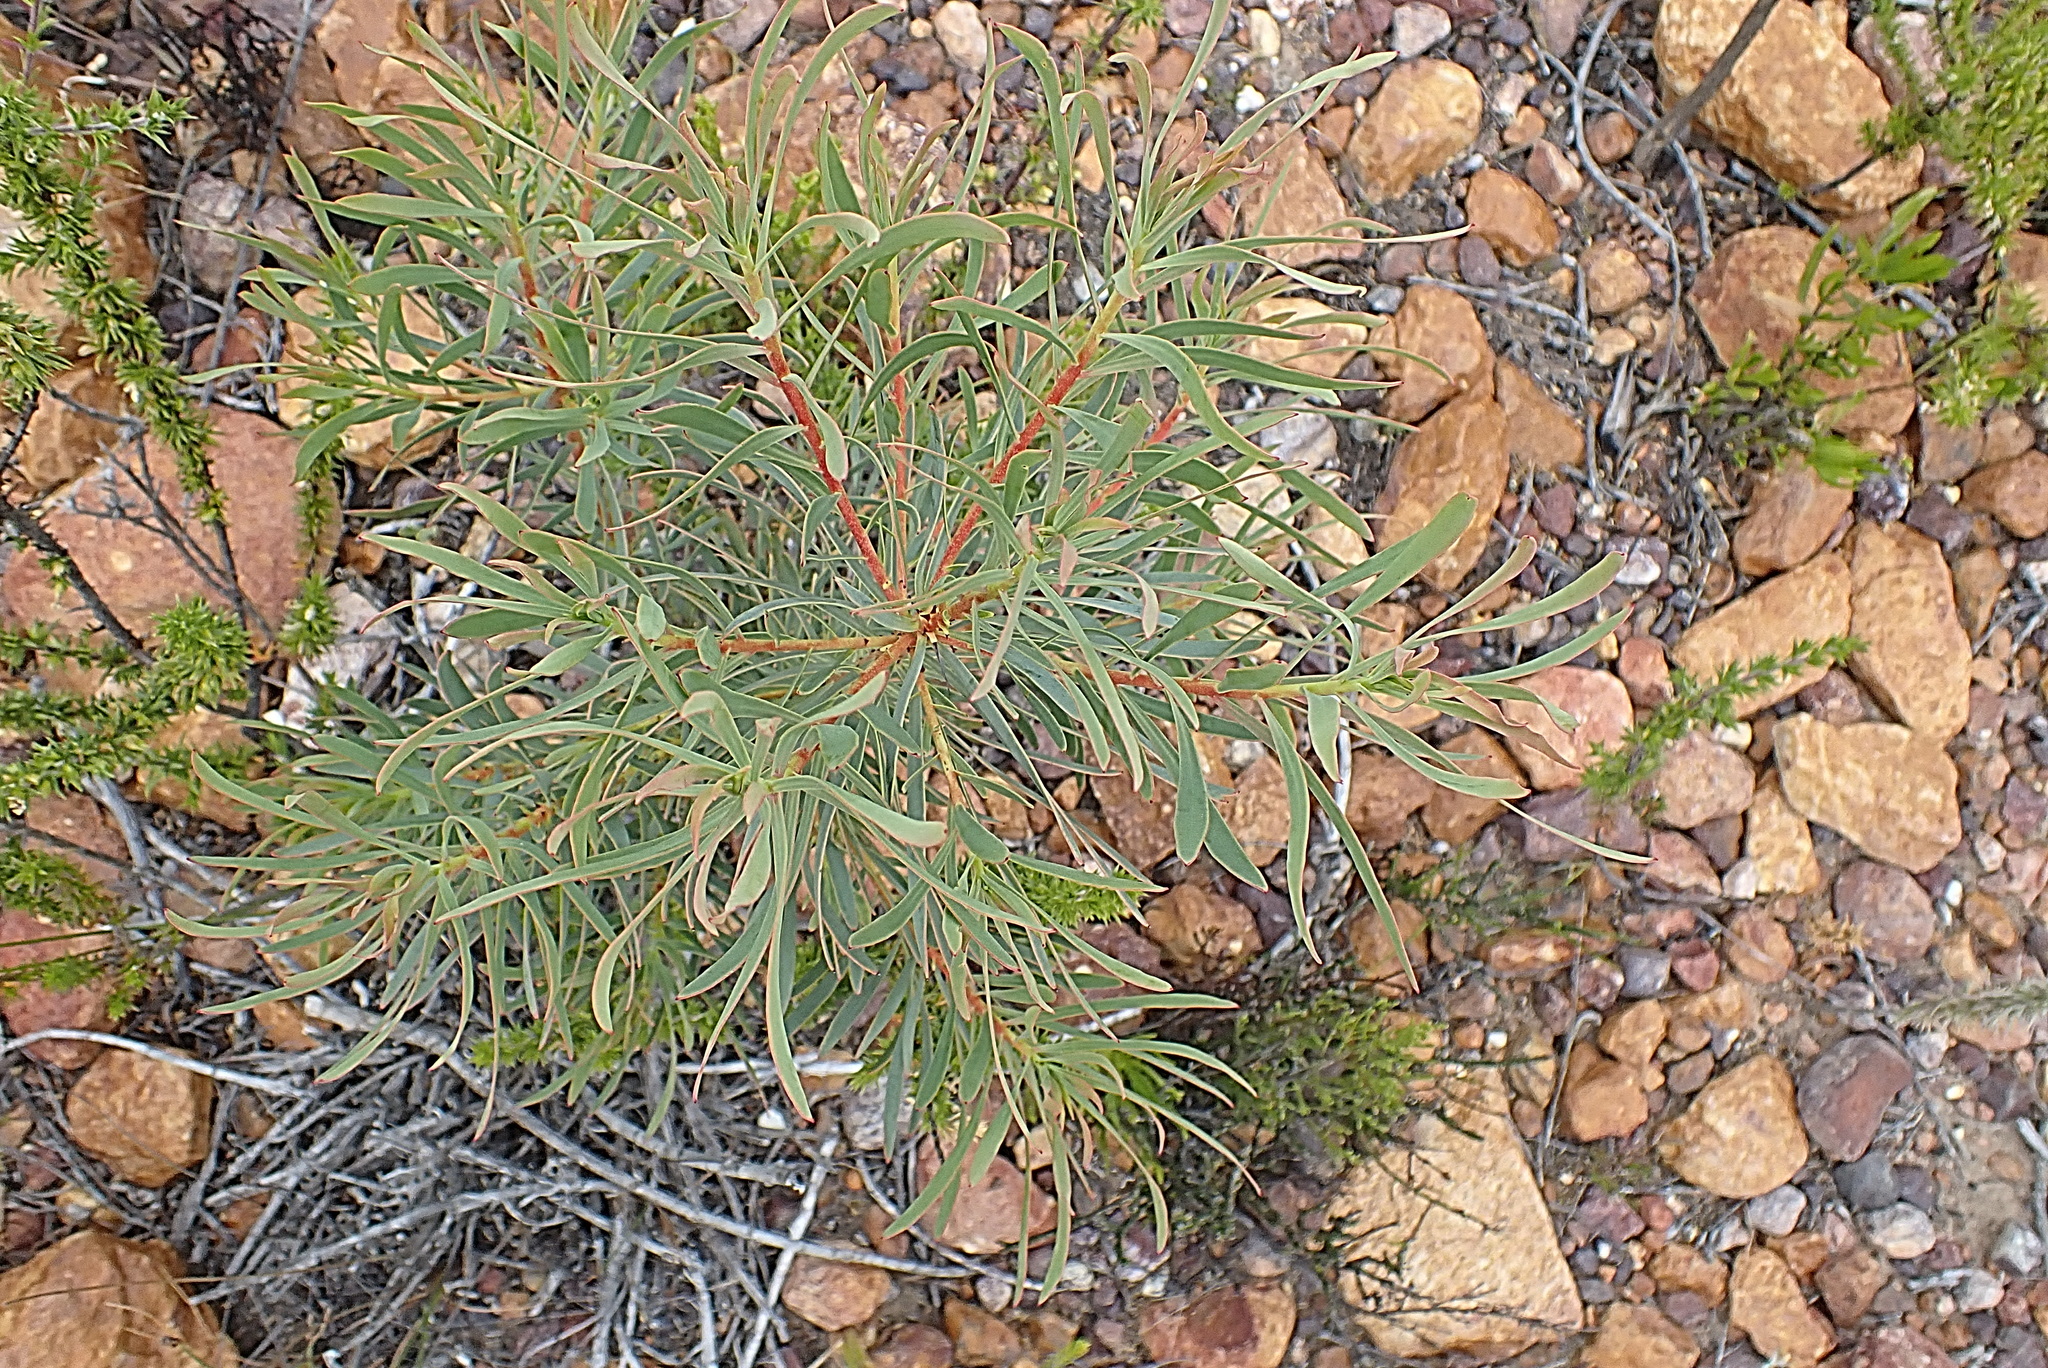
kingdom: Plantae
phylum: Tracheophyta
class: Magnoliopsida
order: Proteales
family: Proteaceae
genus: Protea
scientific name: Protea repens
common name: Sugarbush
